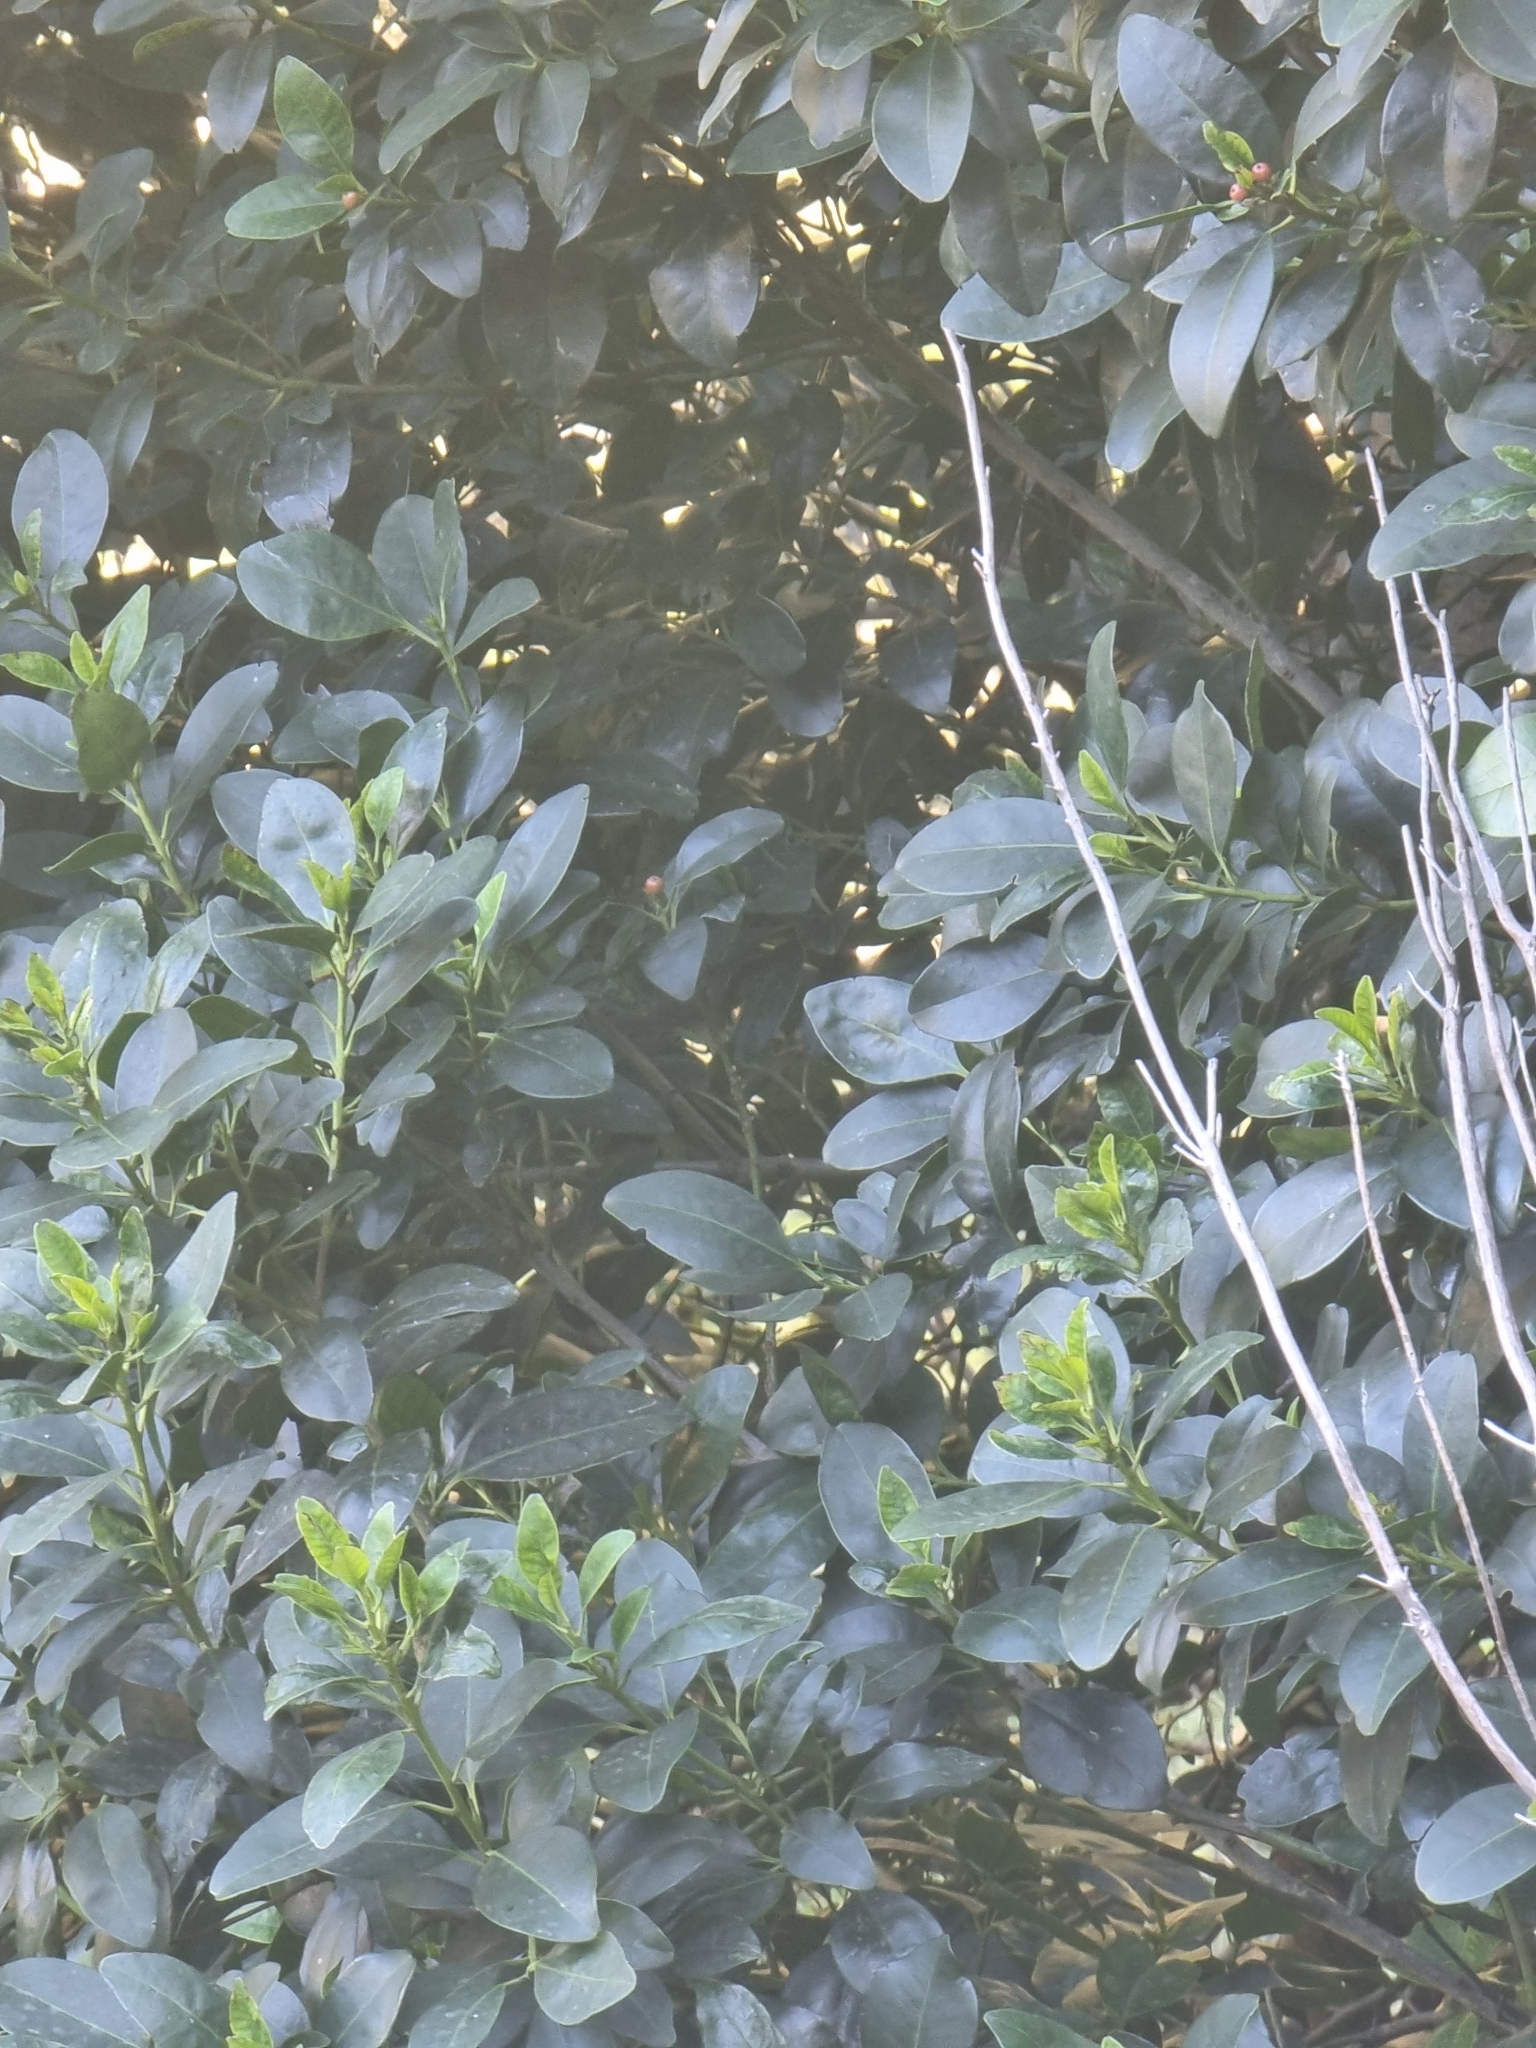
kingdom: Plantae
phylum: Tracheophyta
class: Magnoliopsida
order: Aquifoliales
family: Aquifoliaceae
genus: Ilex
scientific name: Ilex canariensis
